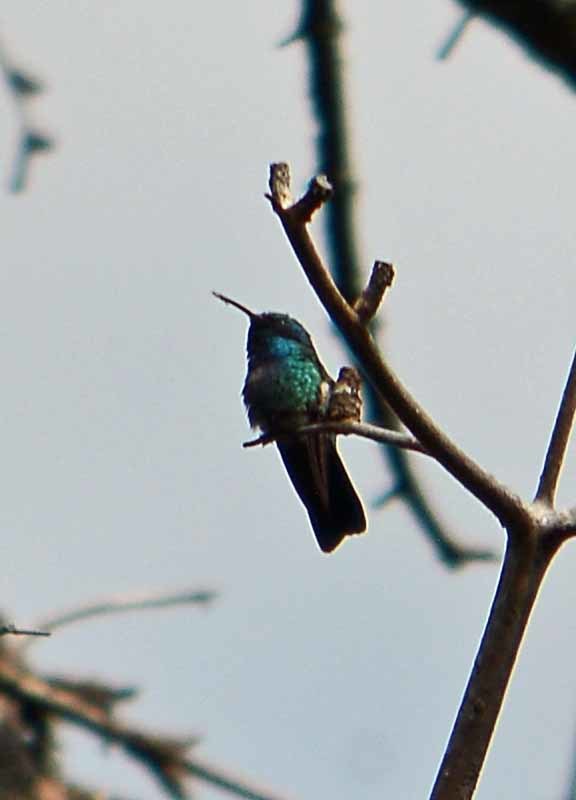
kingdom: Animalia
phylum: Chordata
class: Aves
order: Apodiformes
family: Trochilidae
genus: Colibri
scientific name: Colibri thalassinus
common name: Green violetear
